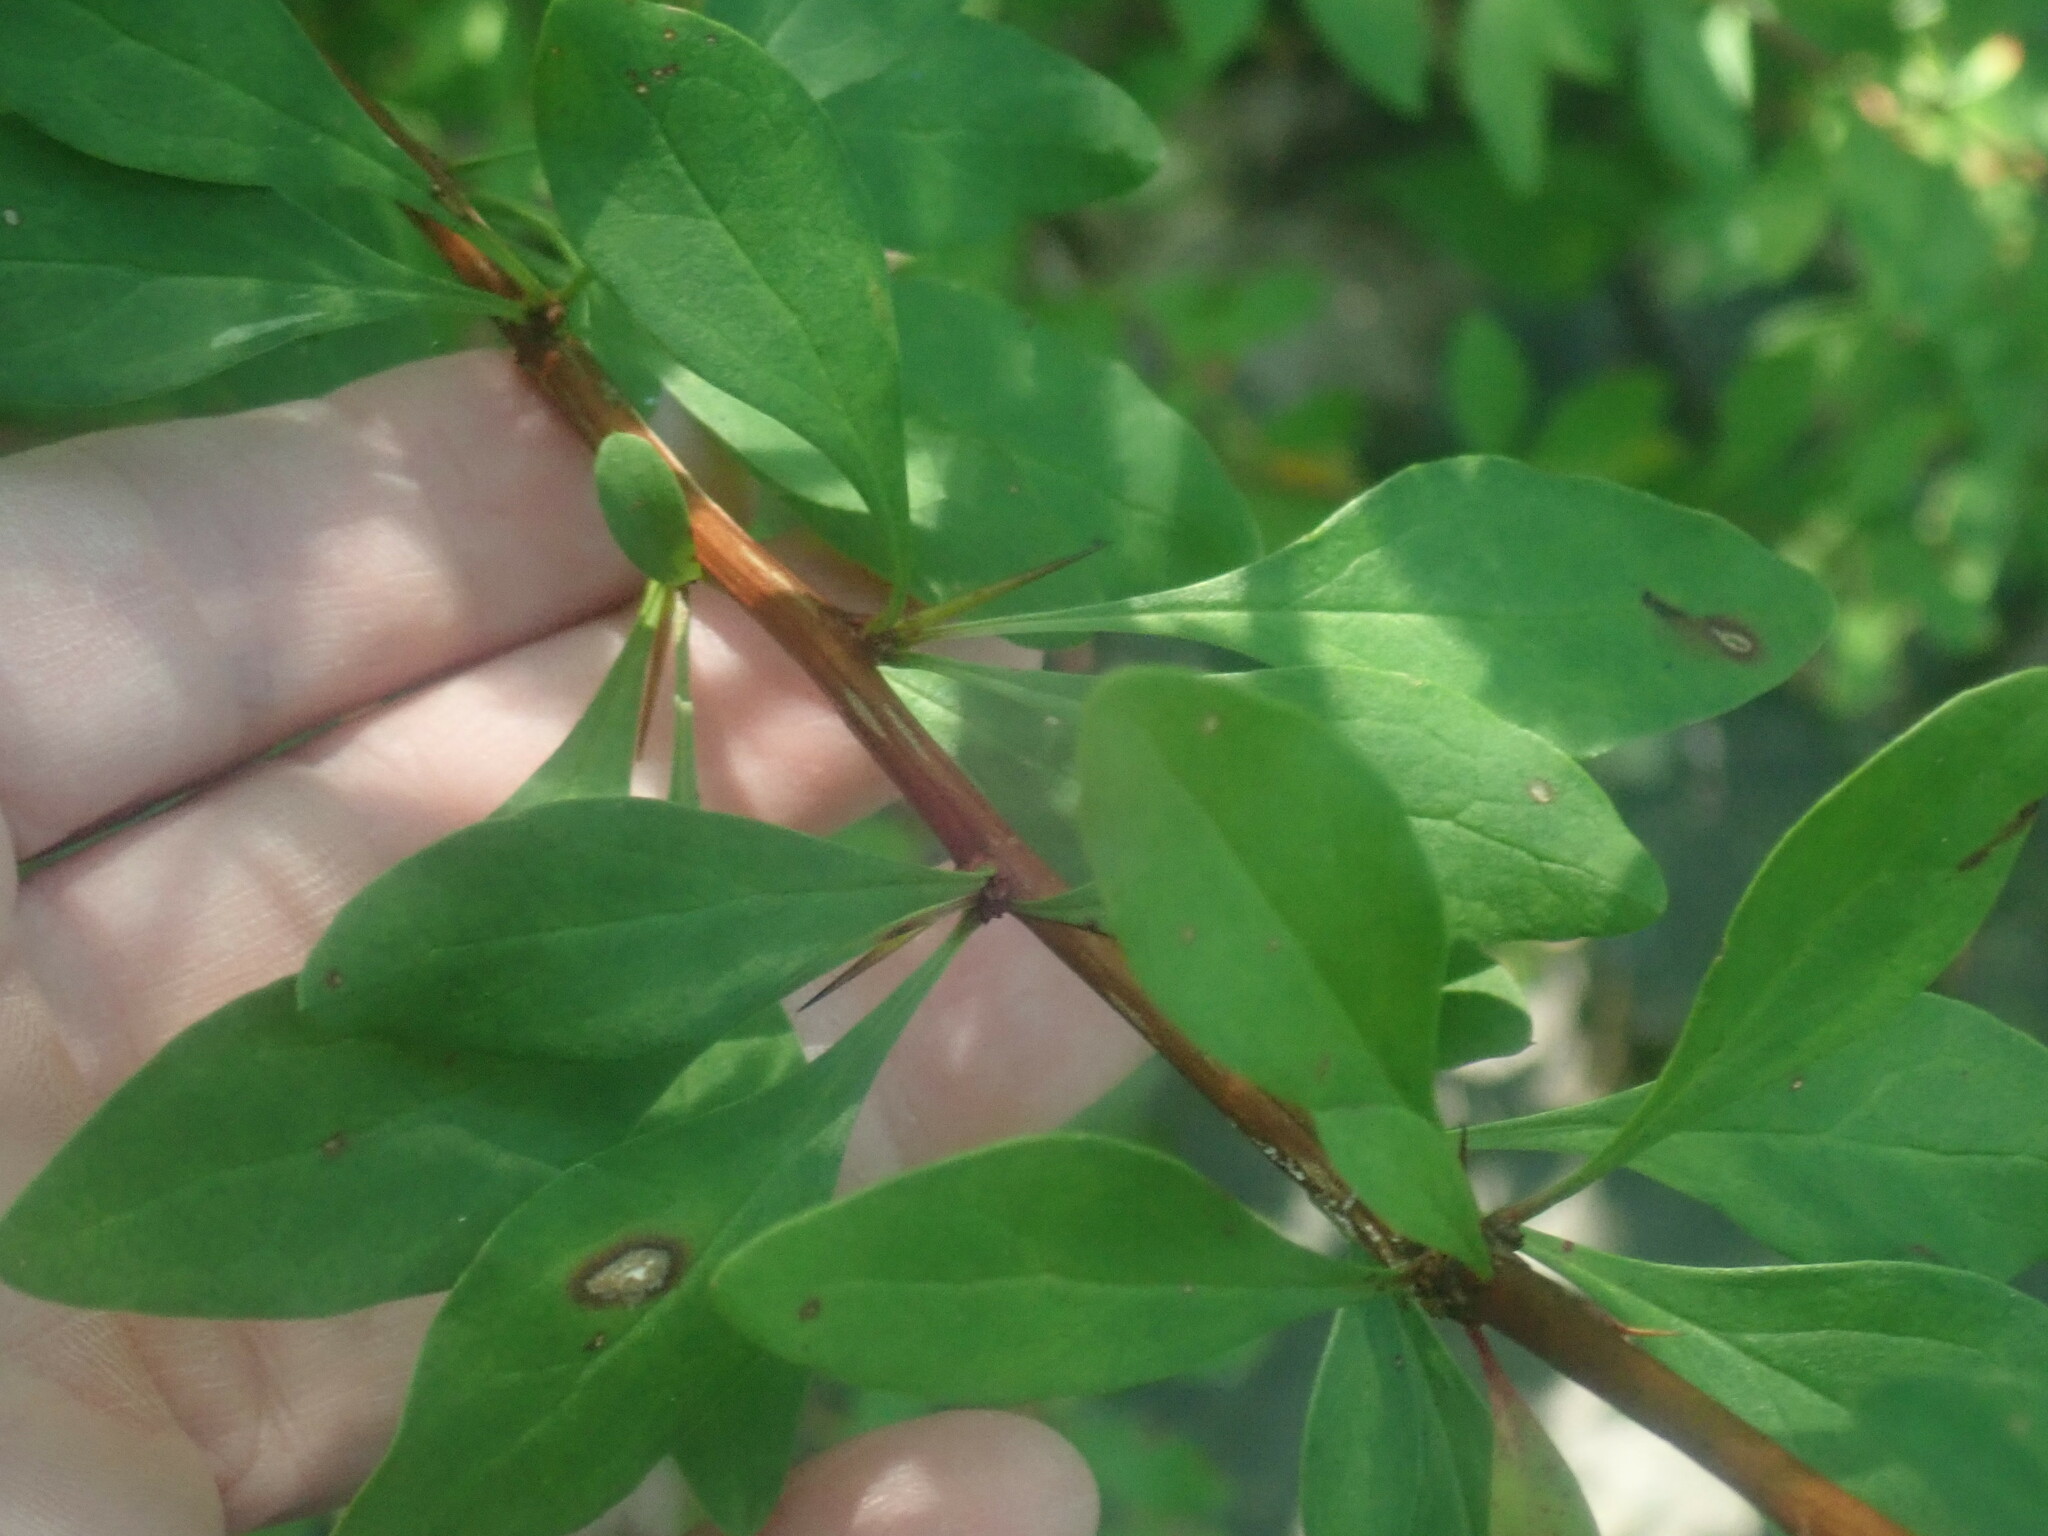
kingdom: Plantae
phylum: Tracheophyta
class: Magnoliopsida
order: Ranunculales
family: Berberidaceae
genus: Berberis
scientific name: Berberis thunbergii
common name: Japanese barberry
